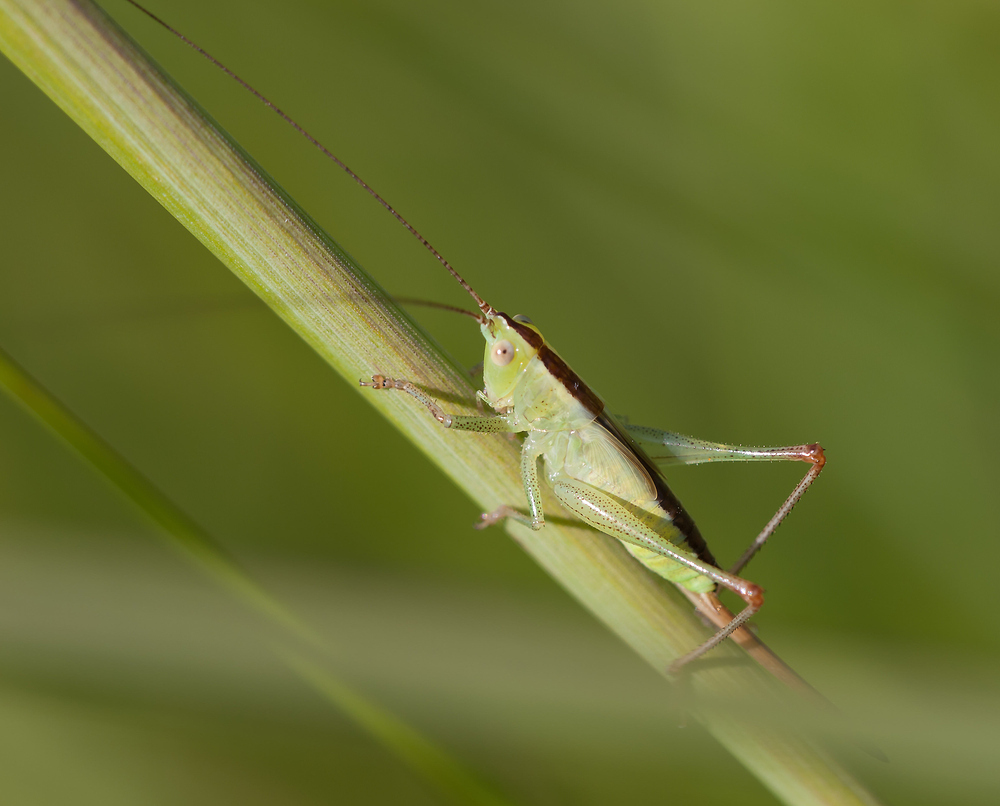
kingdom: Animalia
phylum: Arthropoda
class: Insecta
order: Orthoptera
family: Tettigoniidae
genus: Conocephalus
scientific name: Conocephalus fuscus
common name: Long-winged conehead
